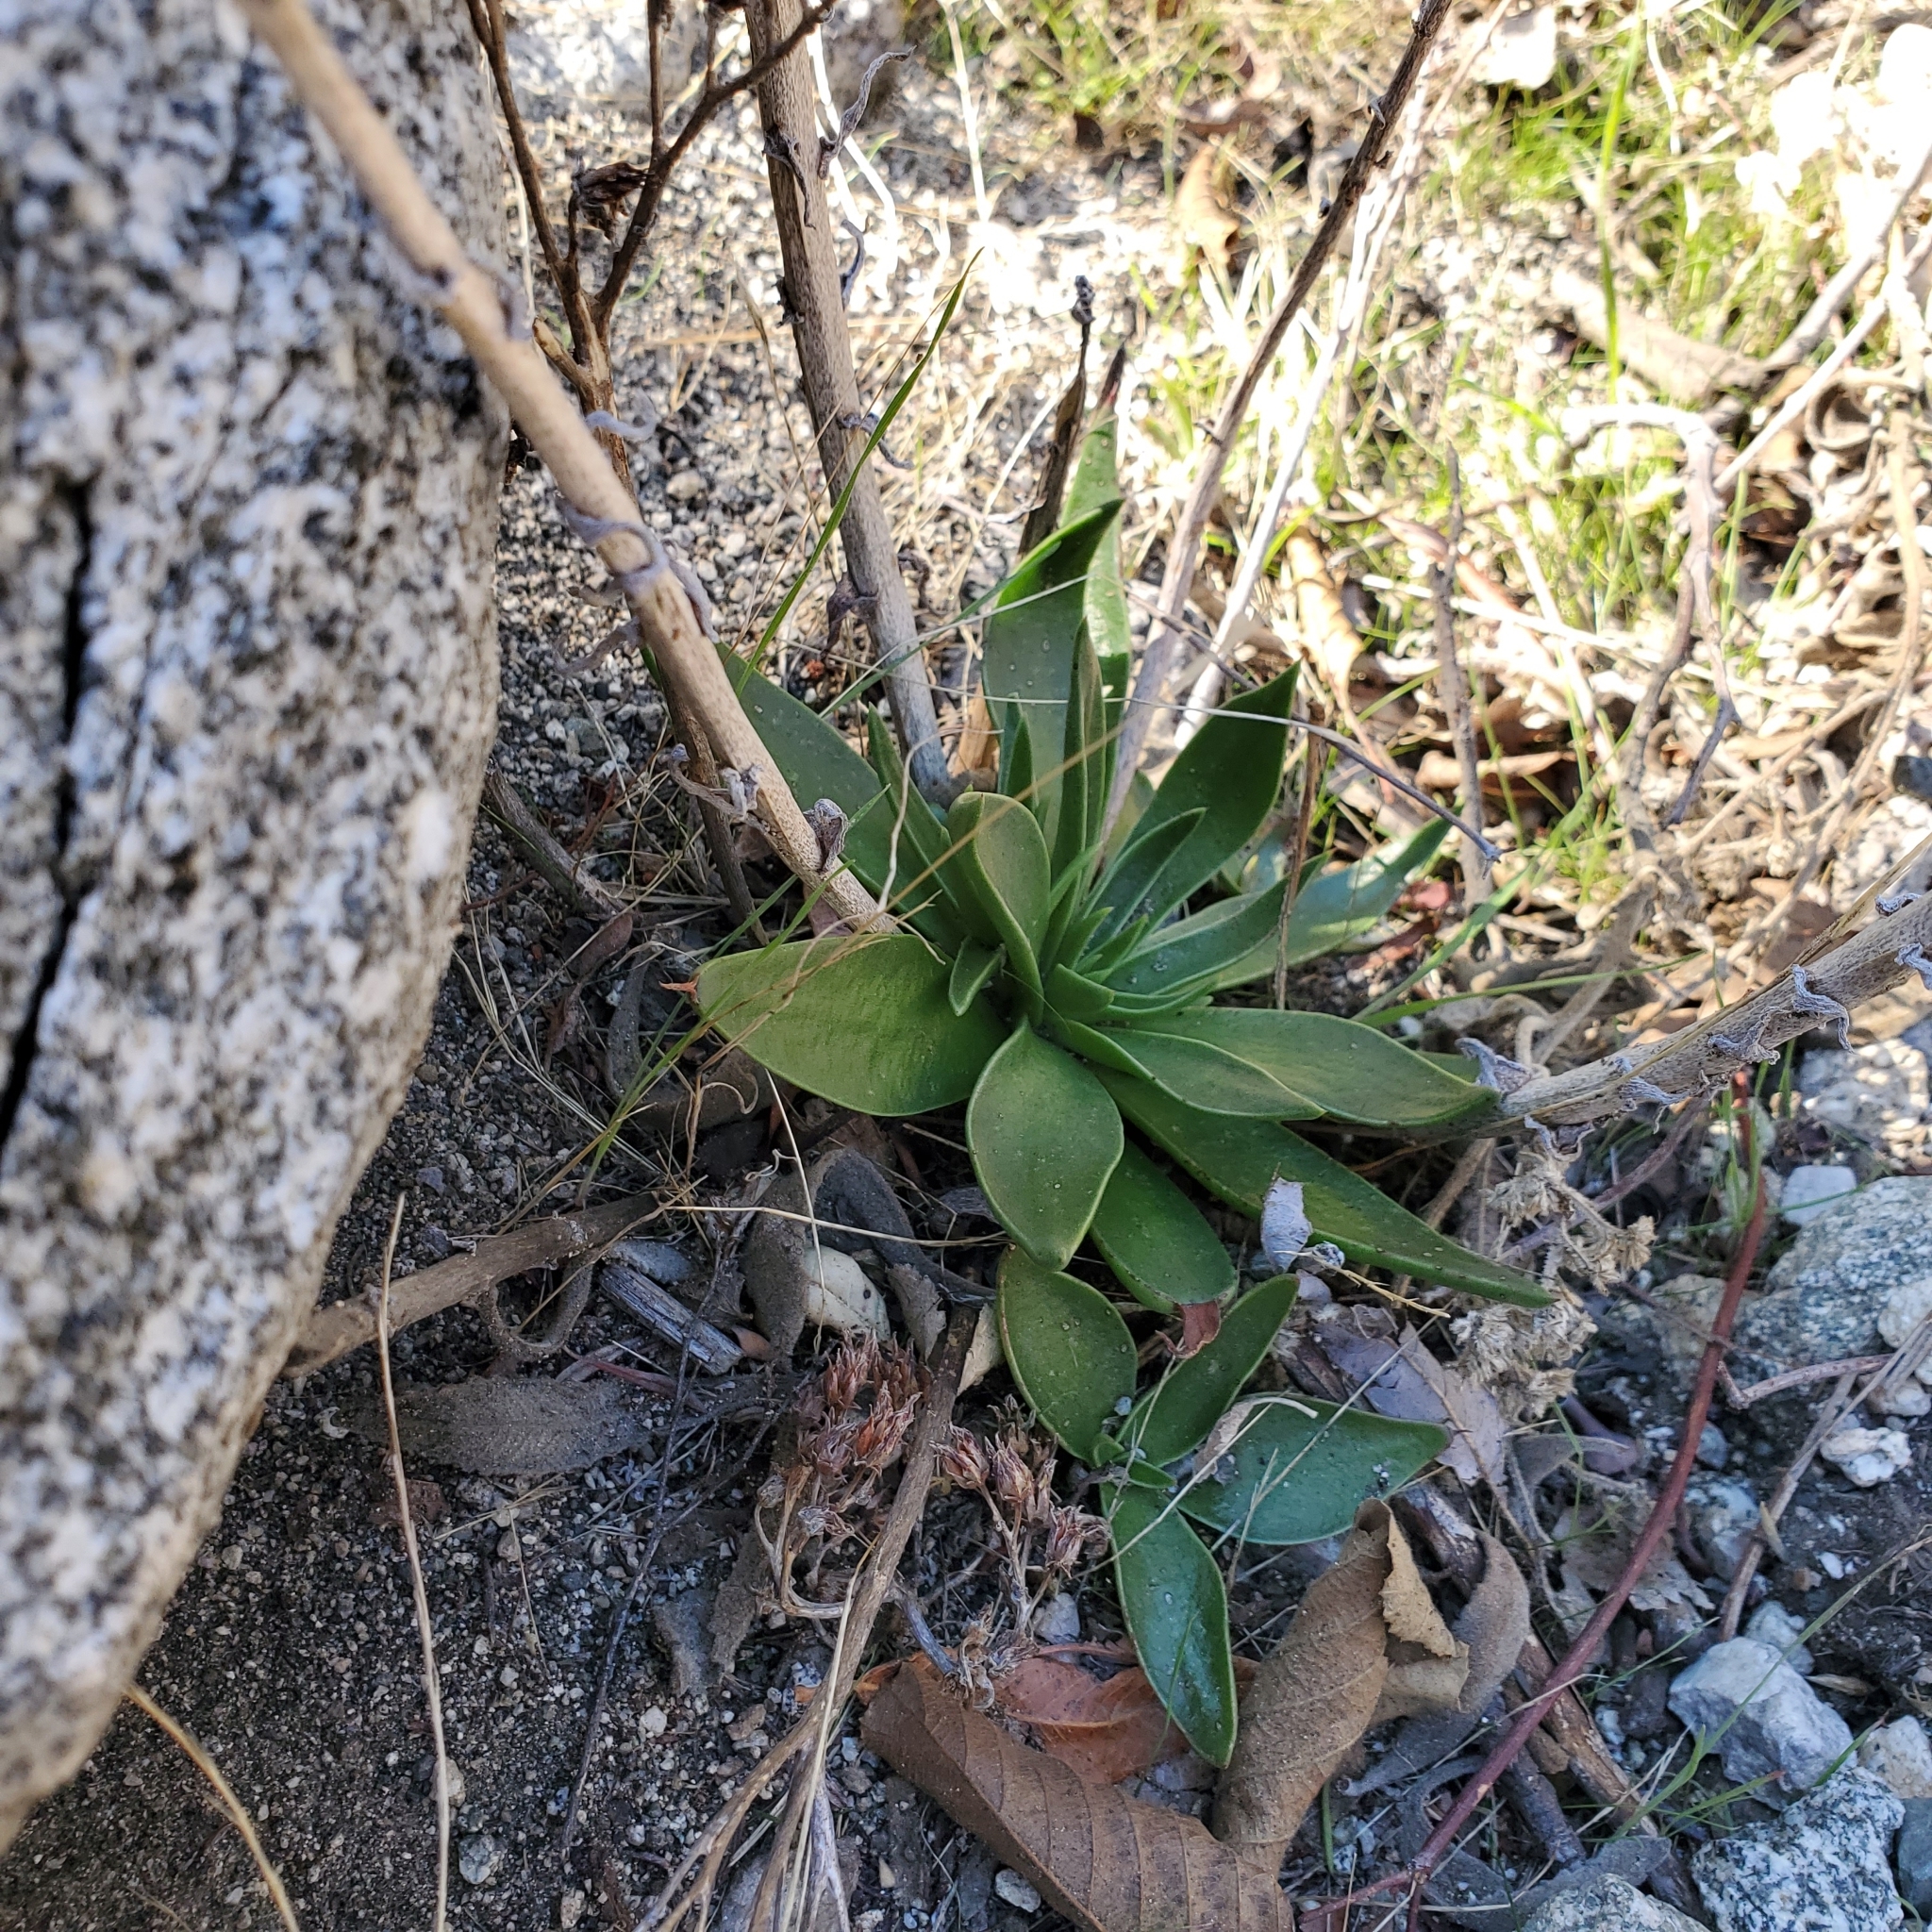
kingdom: Plantae
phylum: Tracheophyta
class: Magnoliopsida
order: Saxifragales
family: Crassulaceae
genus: Dudleya
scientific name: Dudleya lanceolata
